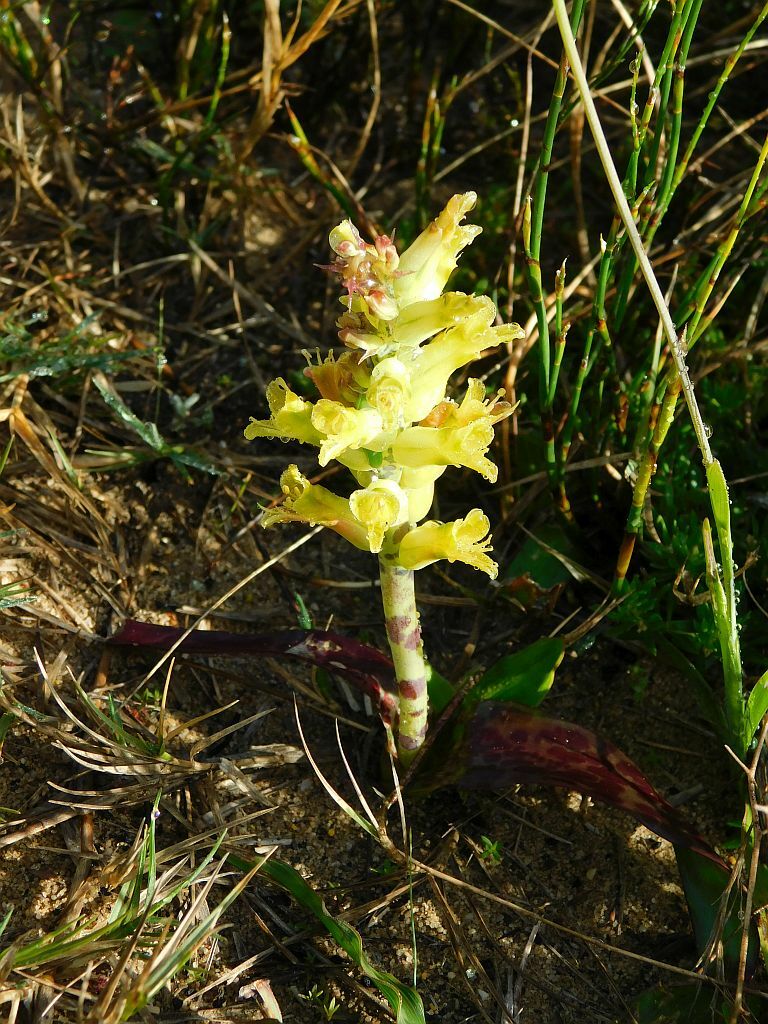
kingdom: Plantae
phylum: Tracheophyta
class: Liliopsida
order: Asparagales
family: Asparagaceae
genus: Lachenalia
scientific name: Lachenalia orchioides
